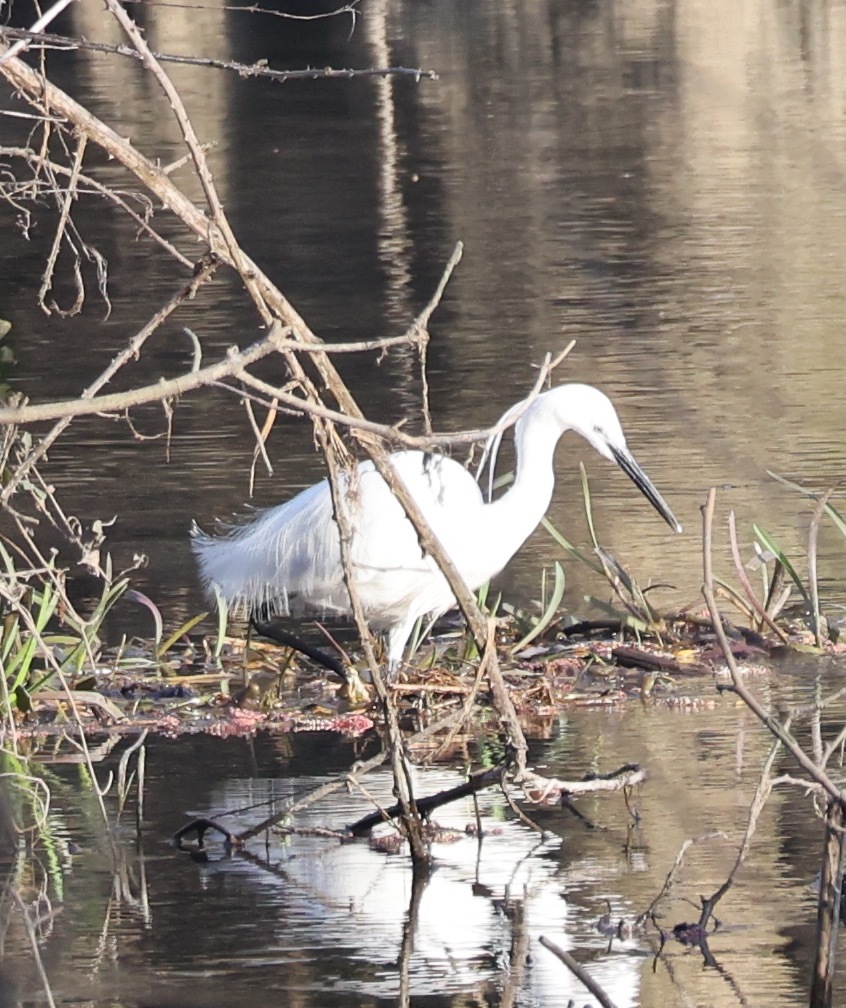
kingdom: Animalia
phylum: Chordata
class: Aves
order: Pelecaniformes
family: Ardeidae
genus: Egretta
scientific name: Egretta garzetta
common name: Little egret
